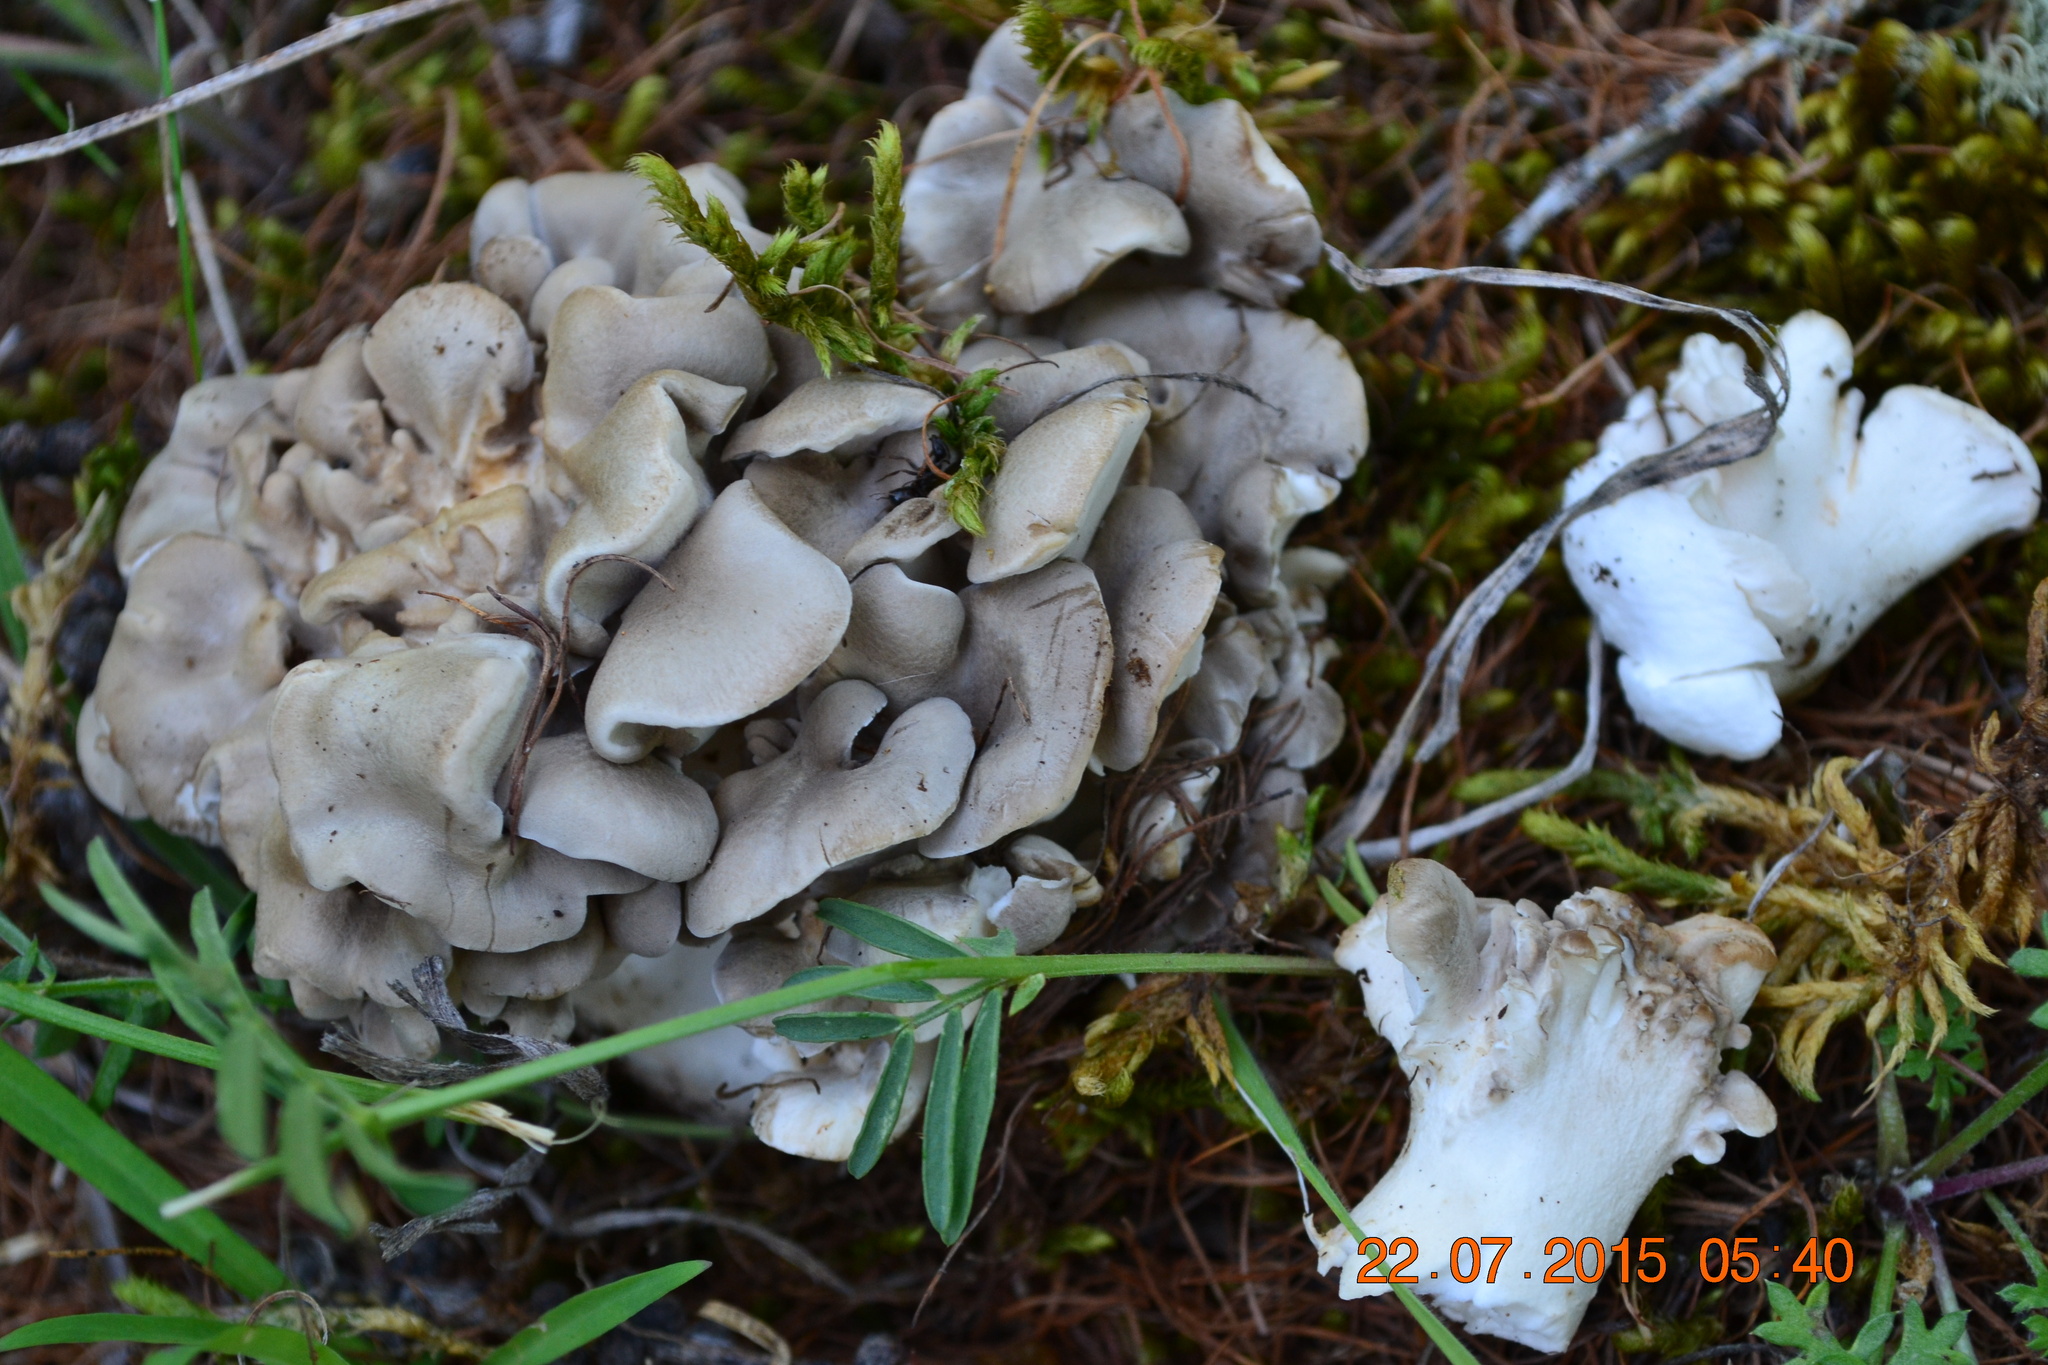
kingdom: Fungi
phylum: Basidiomycota
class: Agaricomycetes
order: Polyporales
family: Grifolaceae
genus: Grifola
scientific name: Grifola frondosa
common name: Hen of the woods
